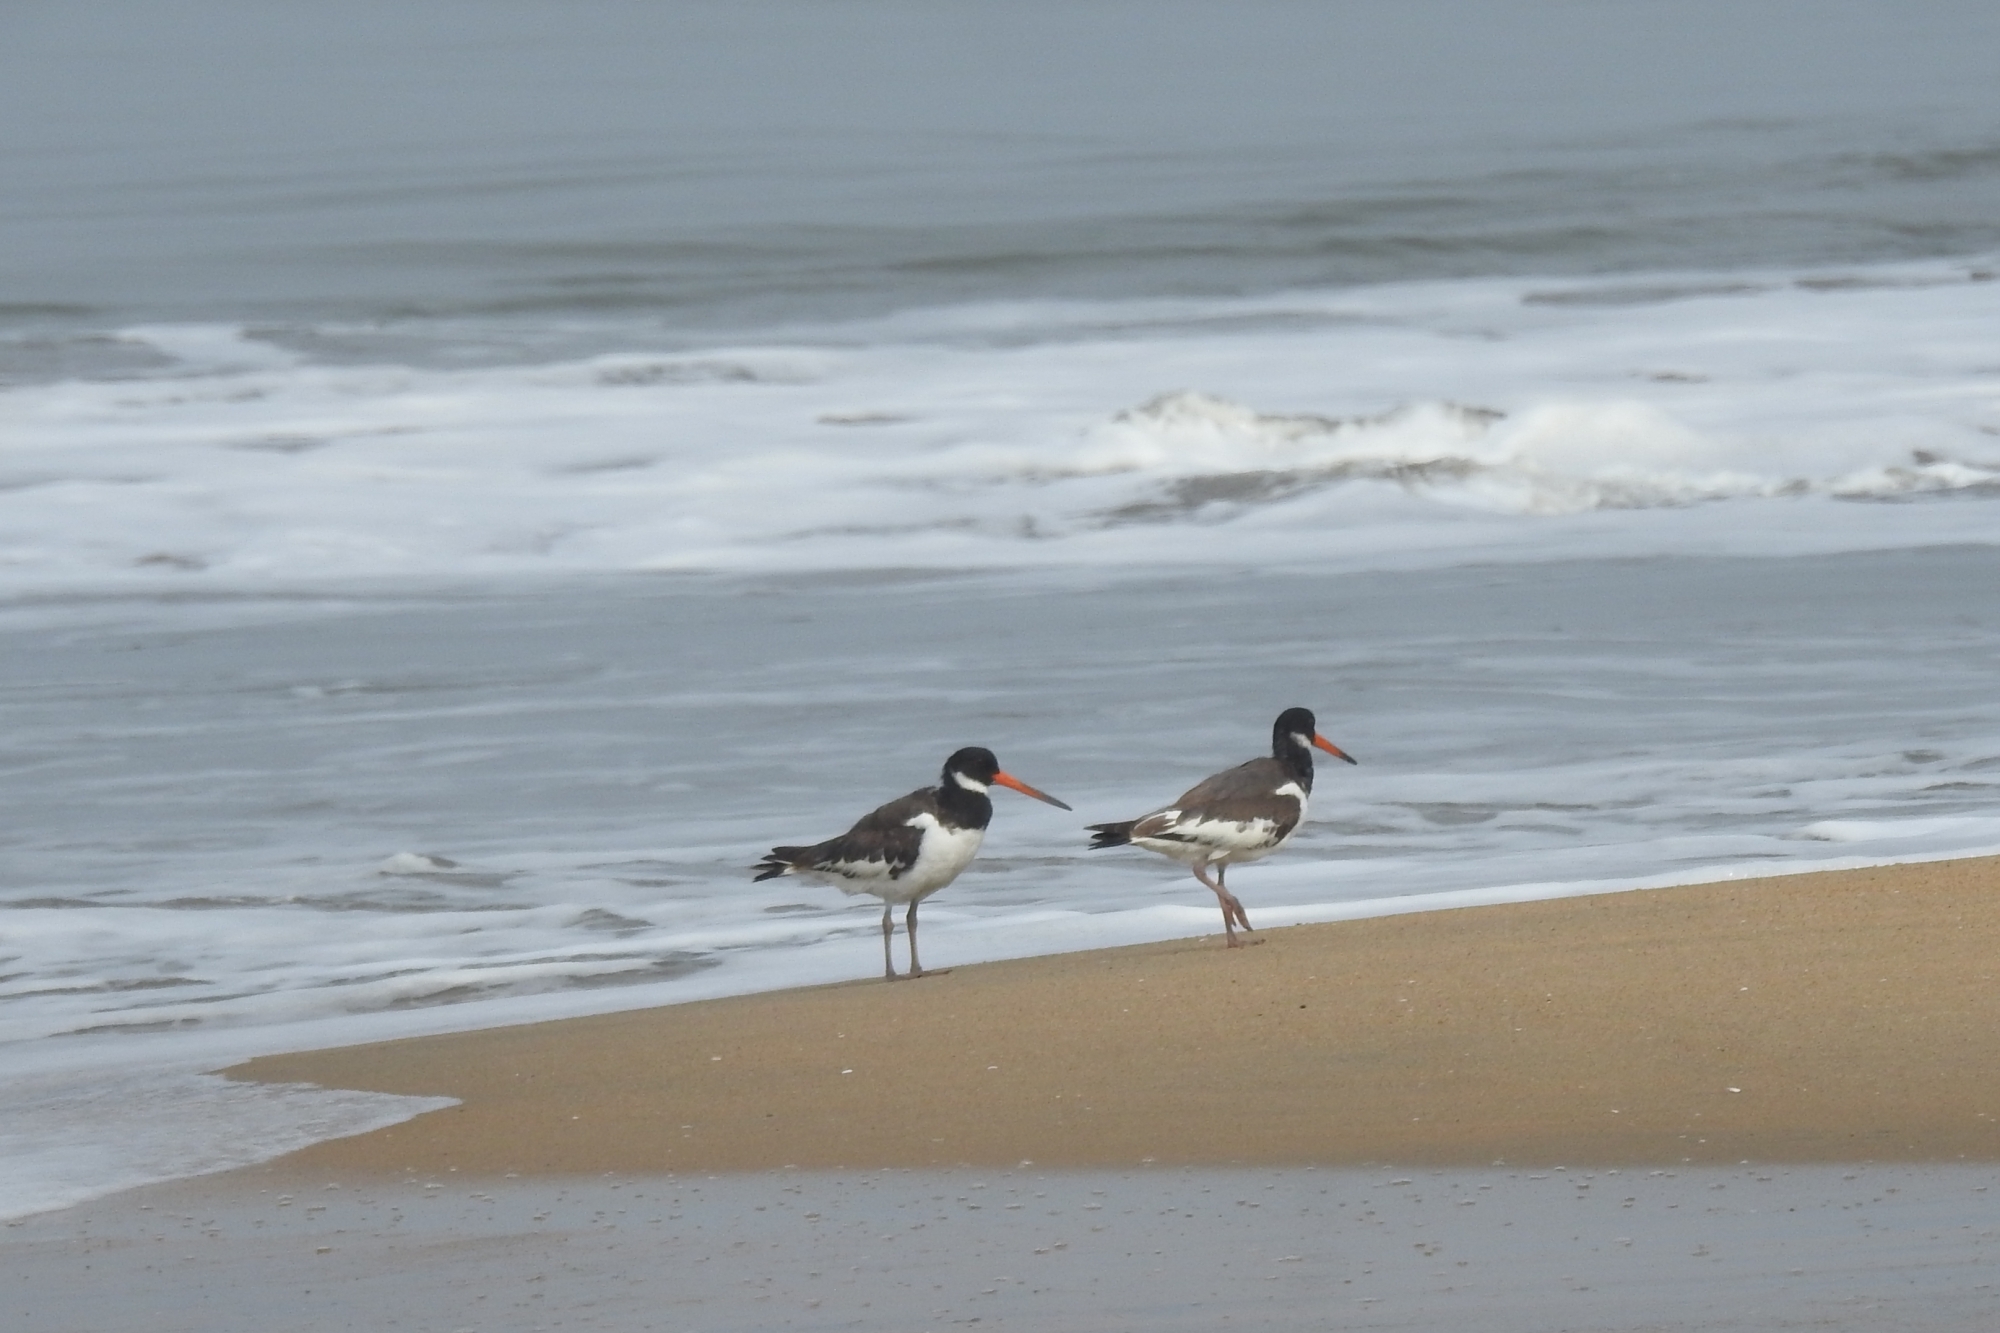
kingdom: Animalia
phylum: Chordata
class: Aves
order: Charadriiformes
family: Haematopodidae
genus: Haematopus
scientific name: Haematopus ostralegus
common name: Eurasian oystercatcher
